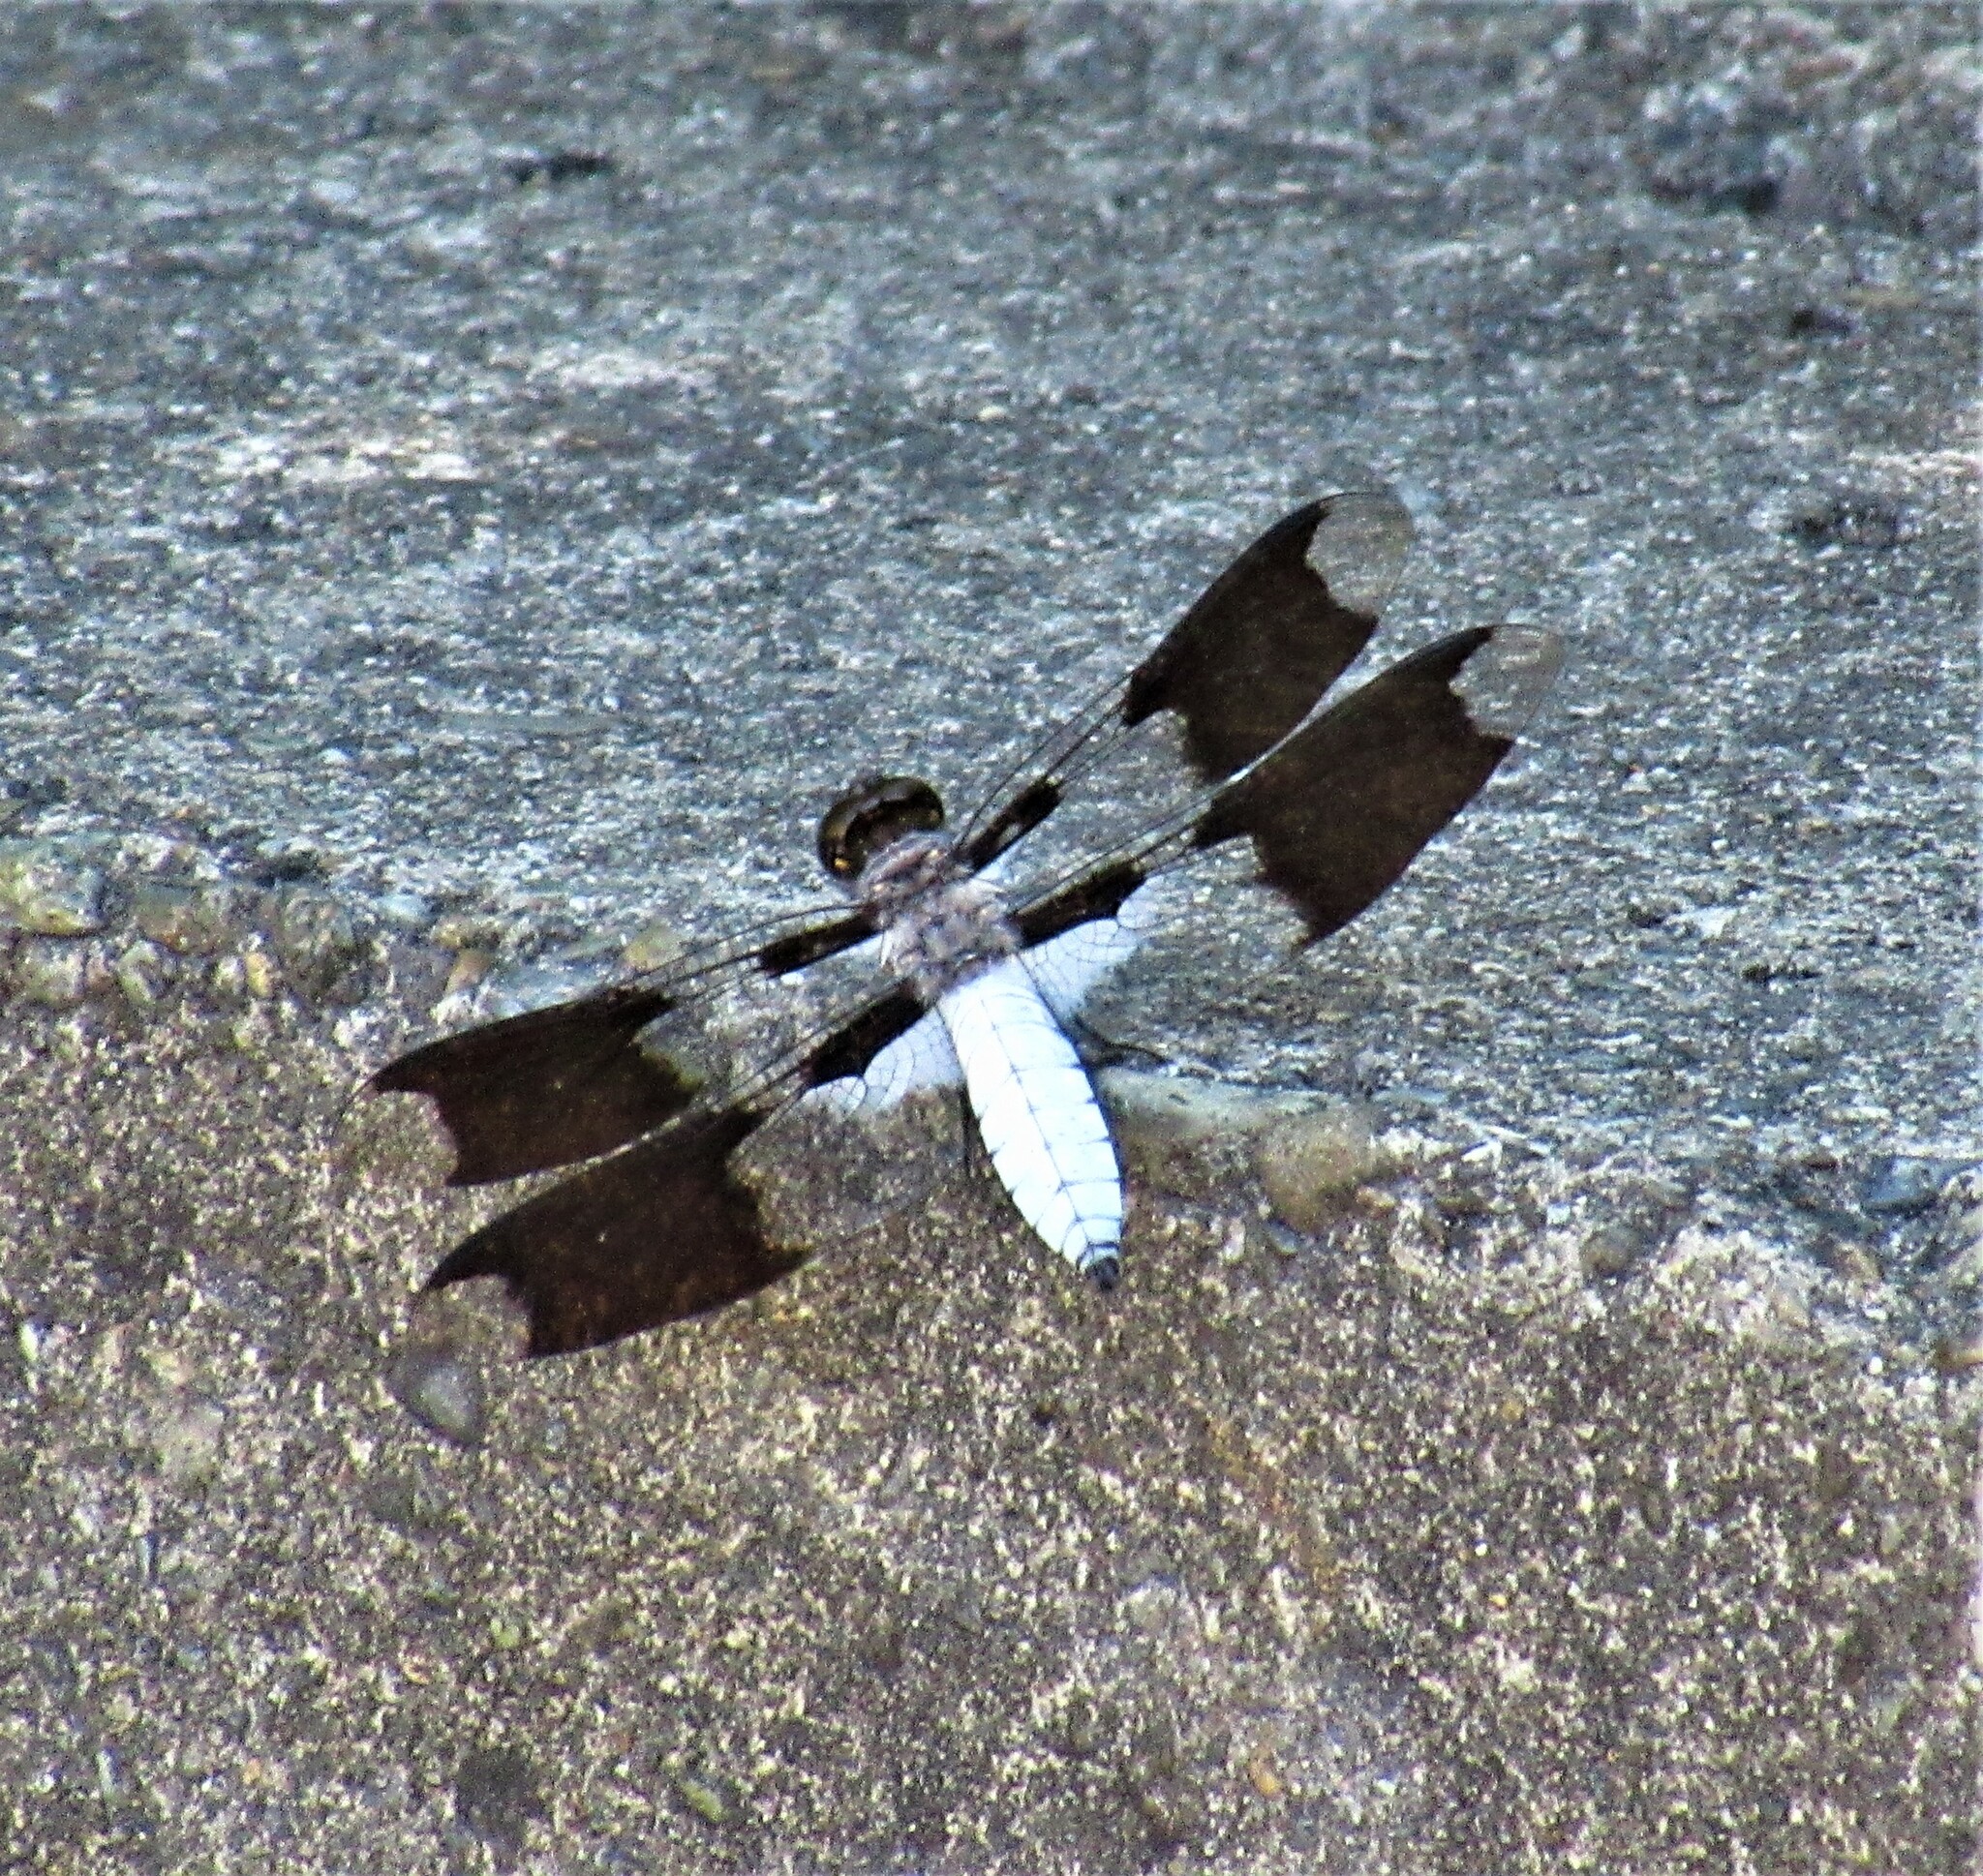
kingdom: Animalia
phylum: Arthropoda
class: Insecta
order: Odonata
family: Libellulidae
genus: Plathemis
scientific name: Plathemis lydia
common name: Common whitetail
